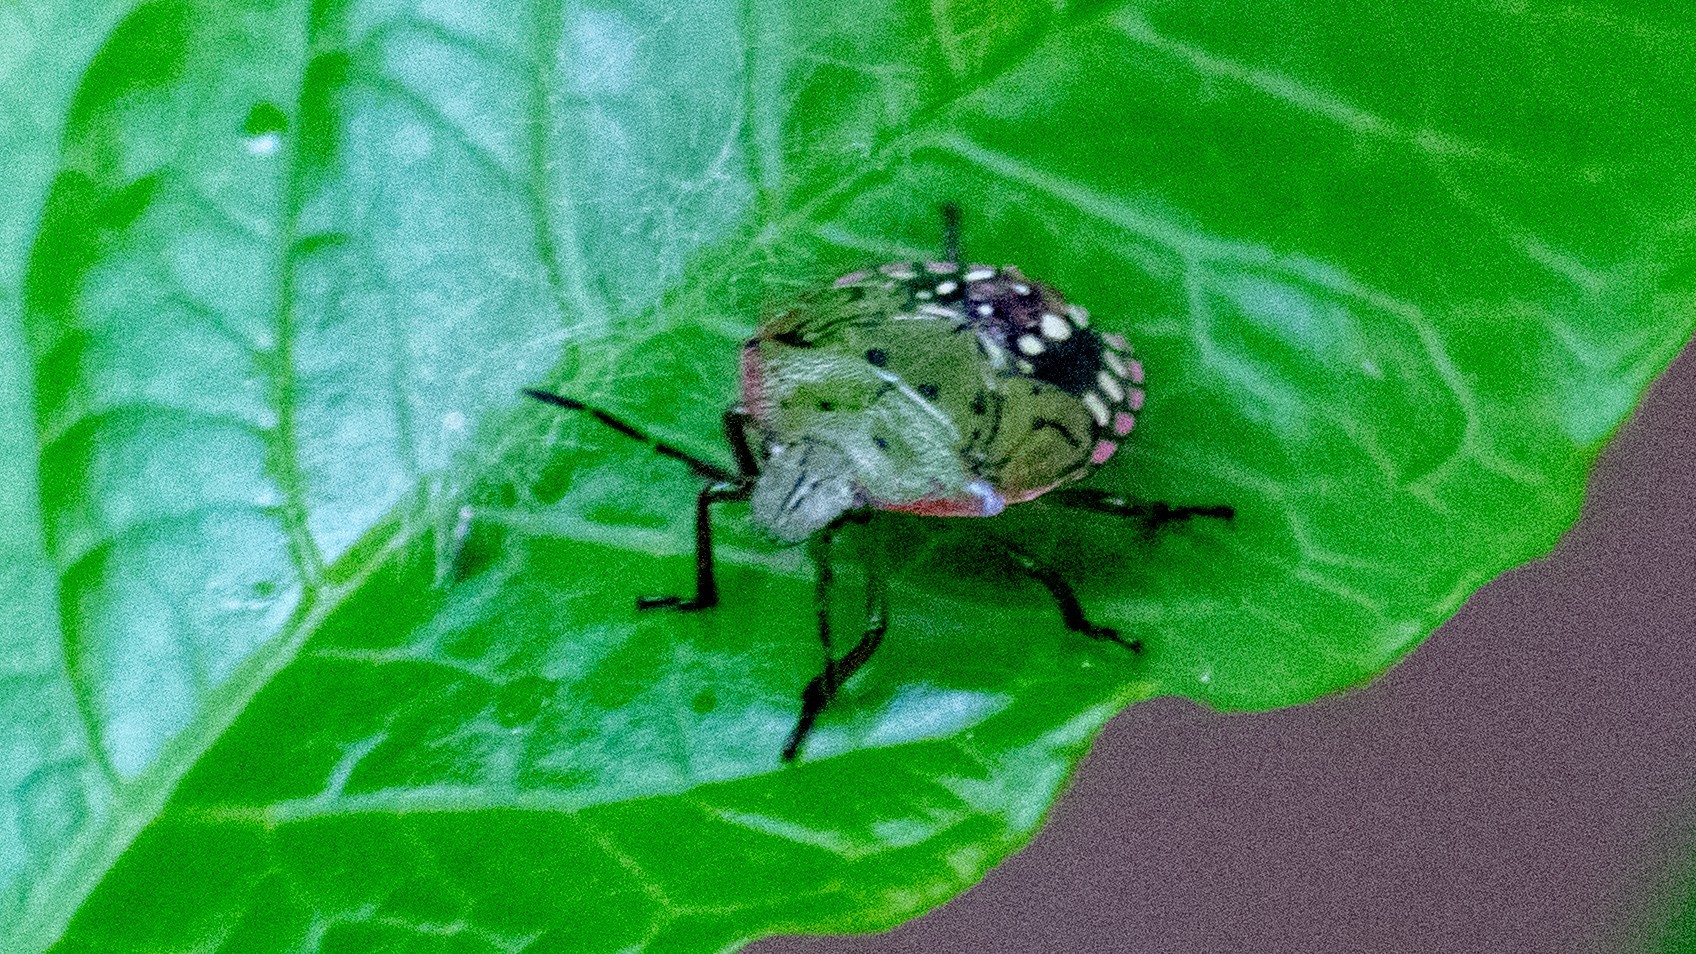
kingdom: Animalia
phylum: Arthropoda
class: Insecta
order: Hemiptera
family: Pentatomidae
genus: Nezara
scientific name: Nezara viridula
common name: Southern green stink bug
